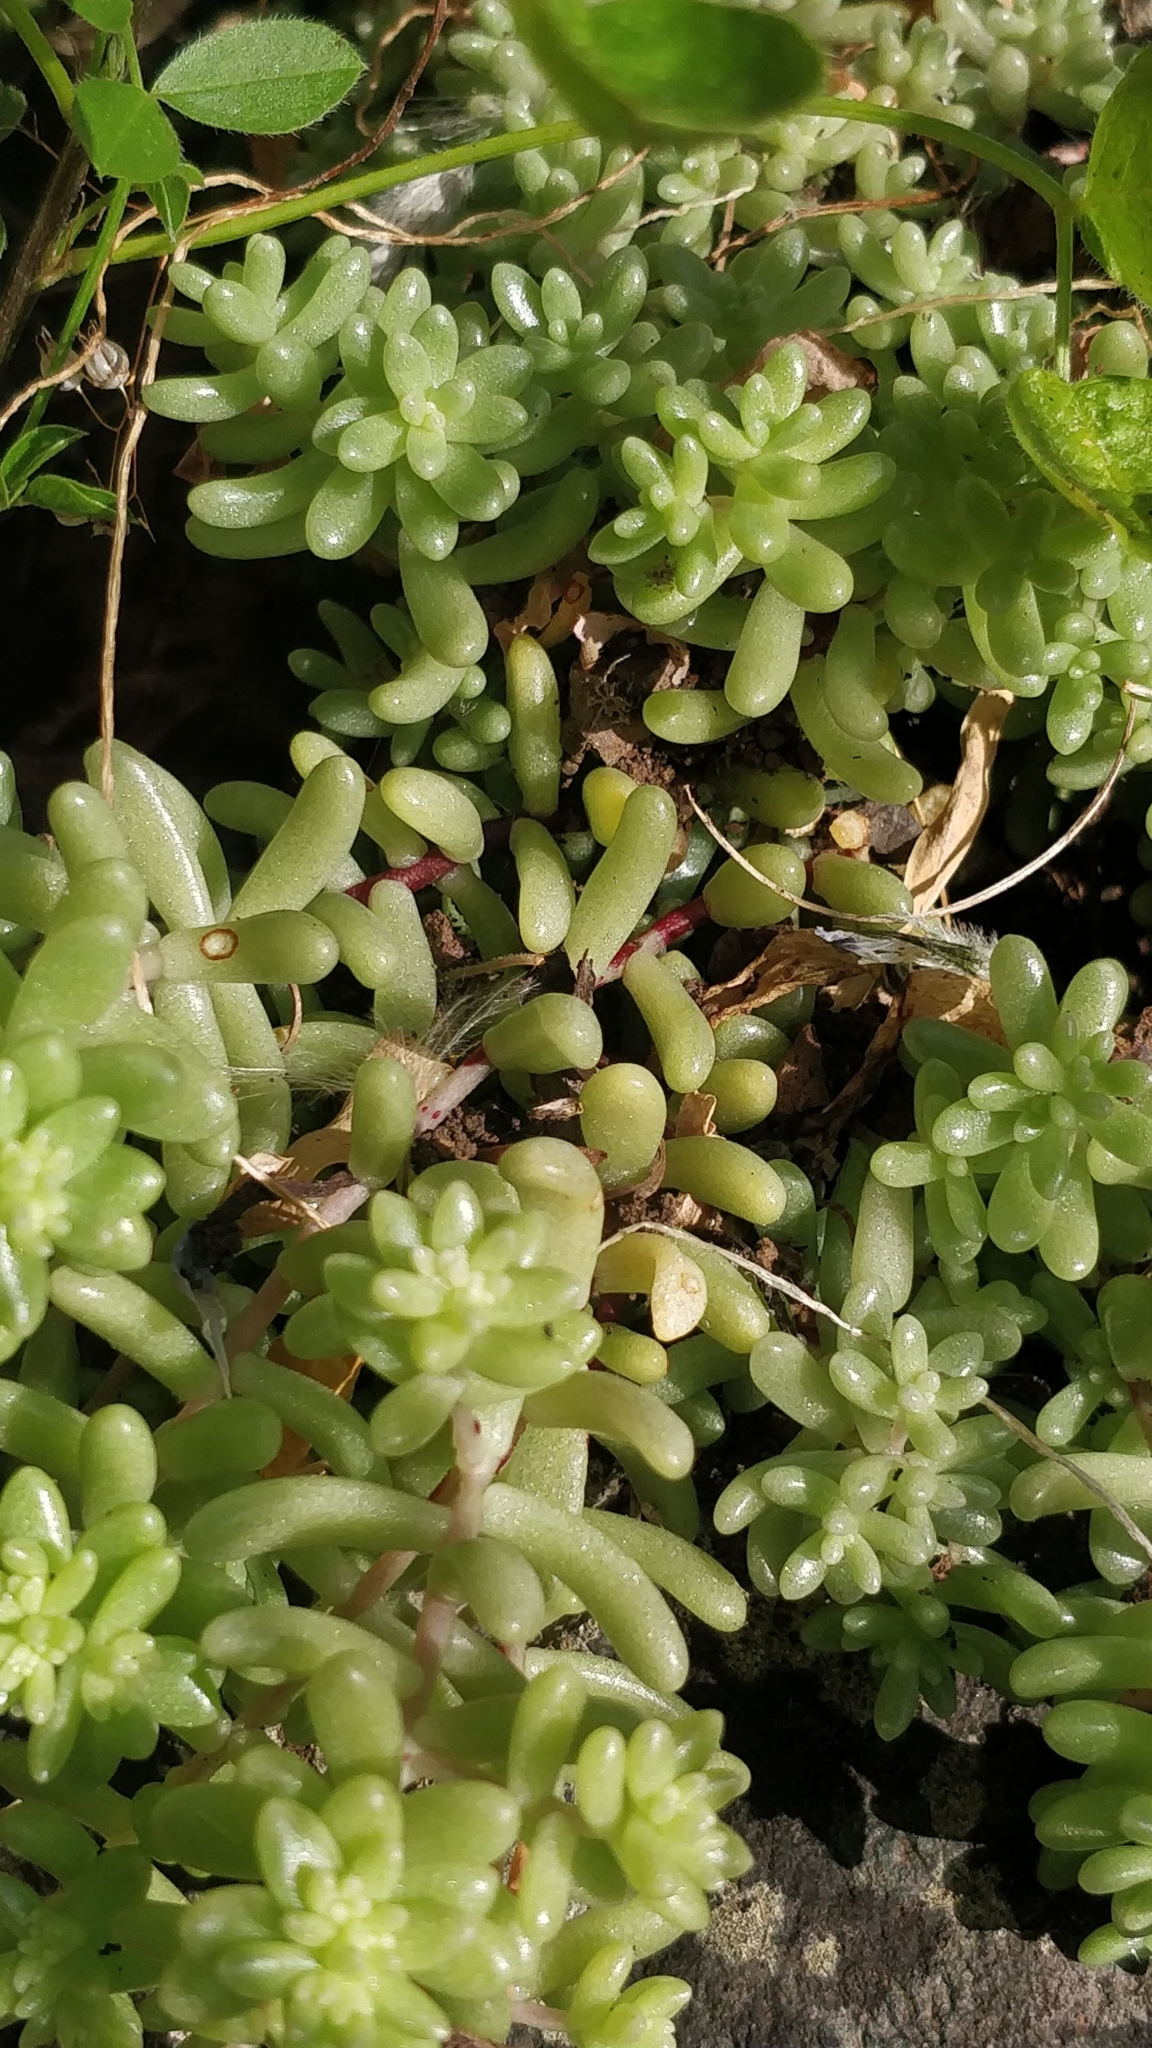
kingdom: Plantae
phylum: Tracheophyta
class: Magnoliopsida
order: Saxifragales
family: Crassulaceae
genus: Sedum
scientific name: Sedum nudum
